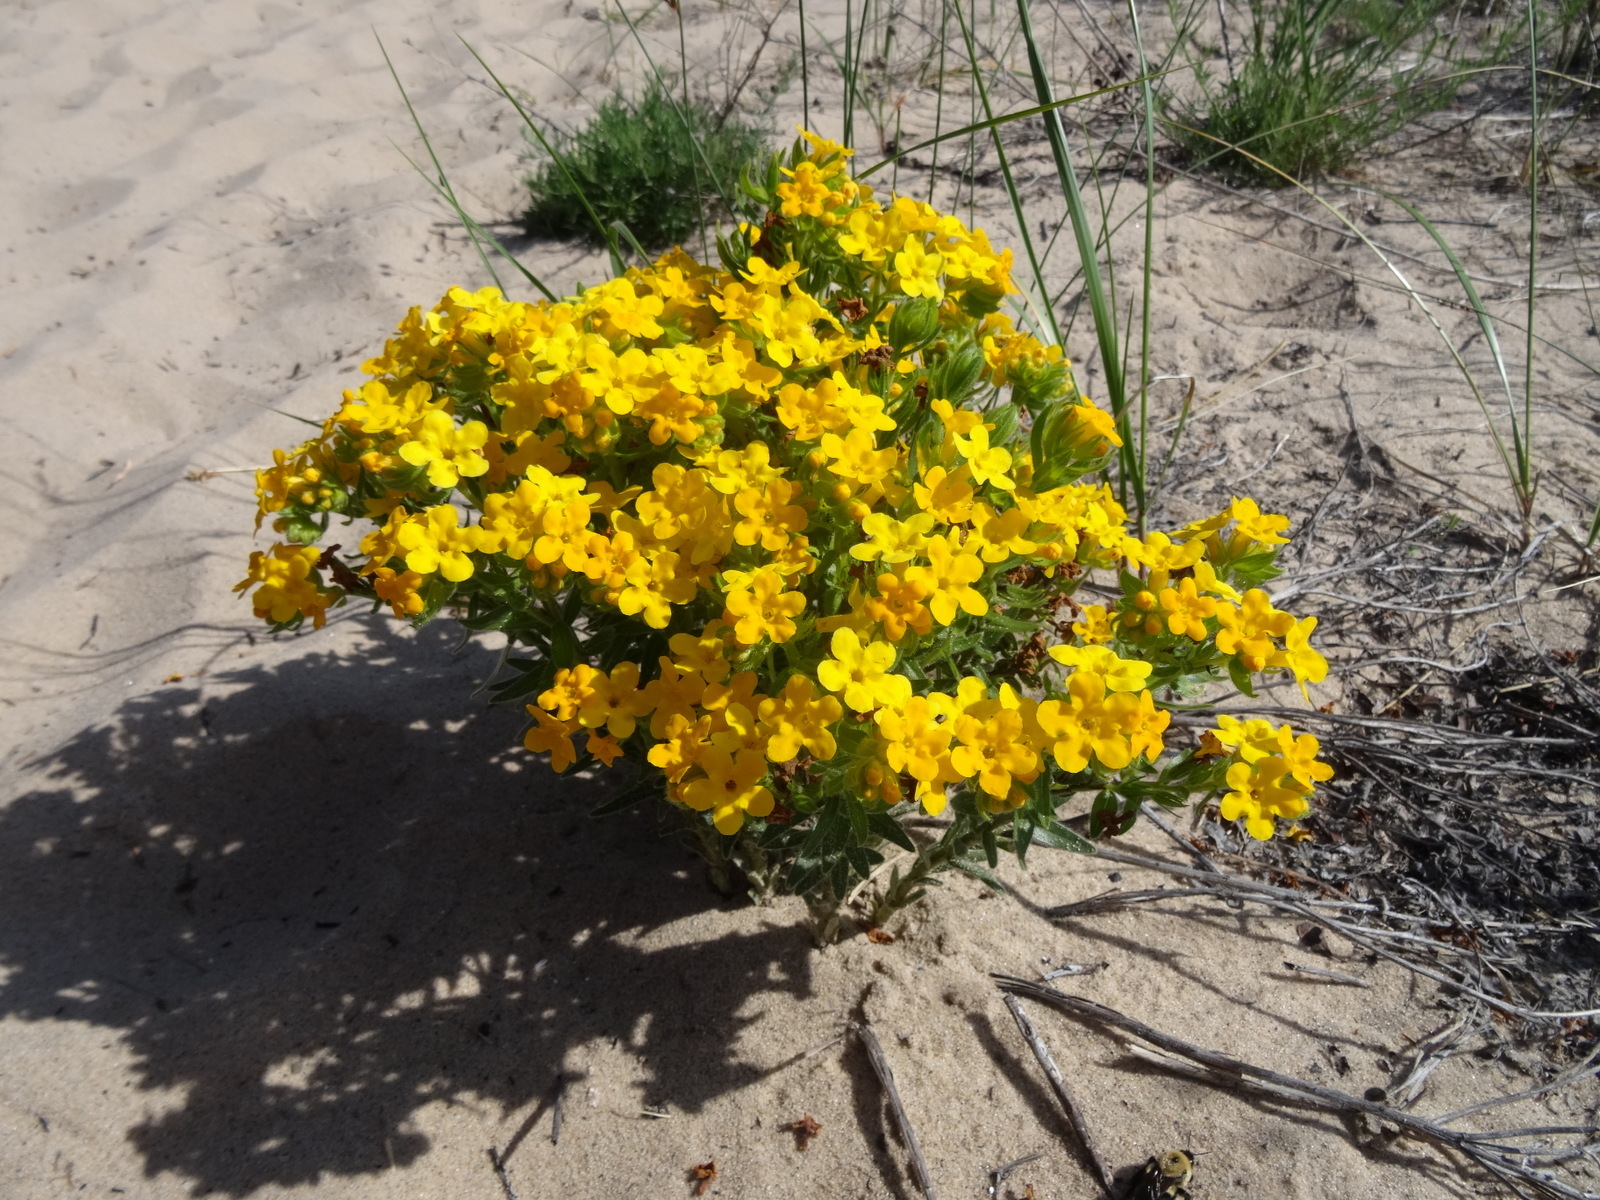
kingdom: Plantae
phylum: Tracheophyta
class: Magnoliopsida
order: Boraginales
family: Boraginaceae
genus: Lithospermum
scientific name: Lithospermum caroliniense
